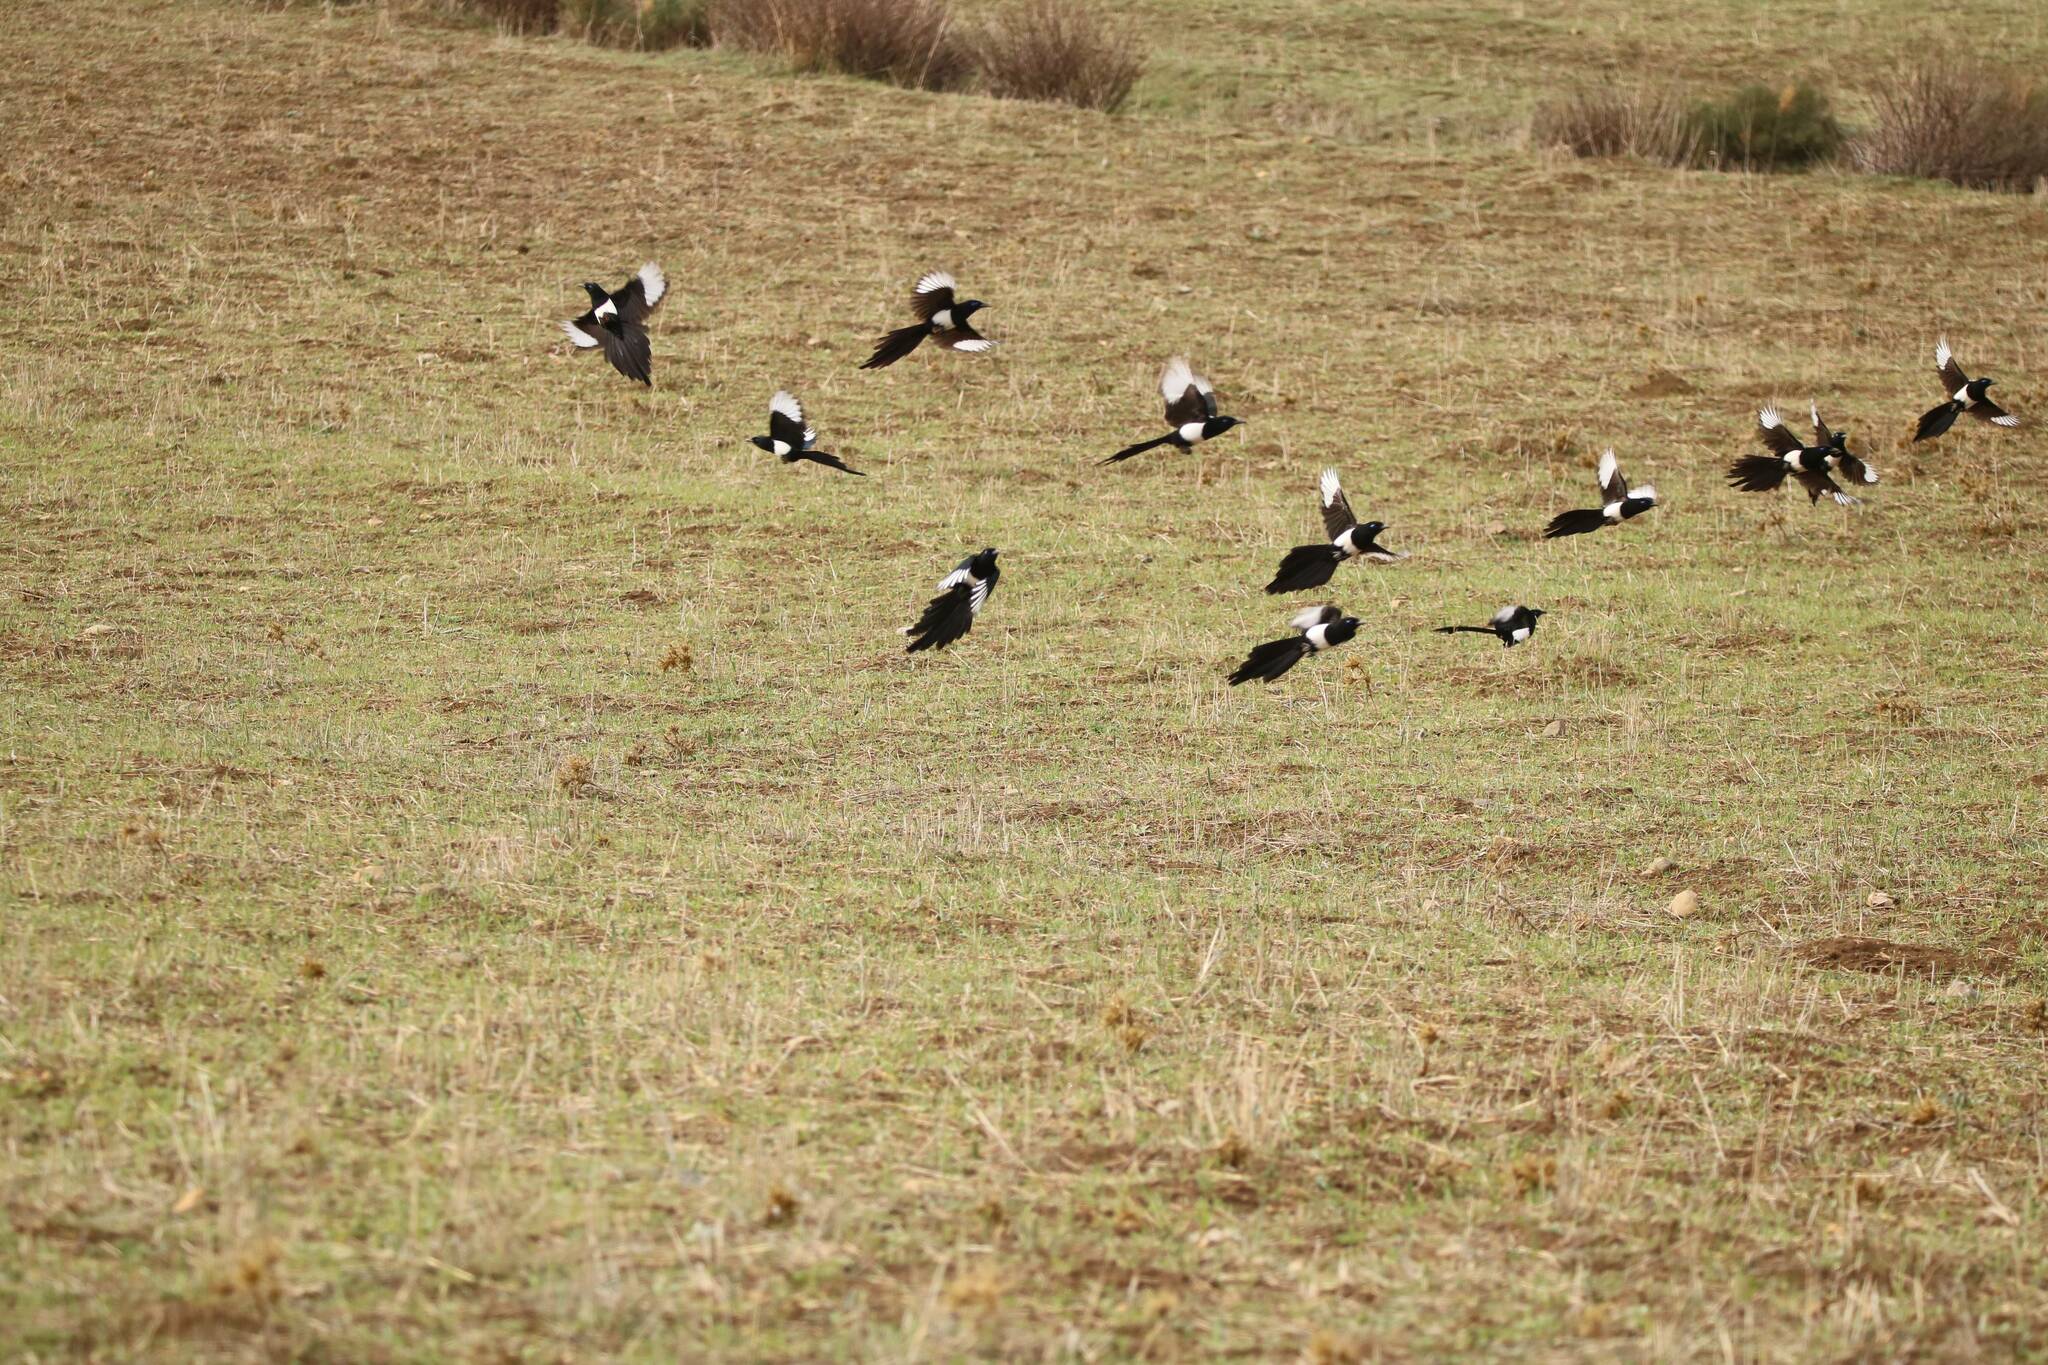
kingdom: Animalia
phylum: Chordata
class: Aves
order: Passeriformes
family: Corvidae
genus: Pica
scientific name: Pica mauritanica
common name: Maghreb magpie
